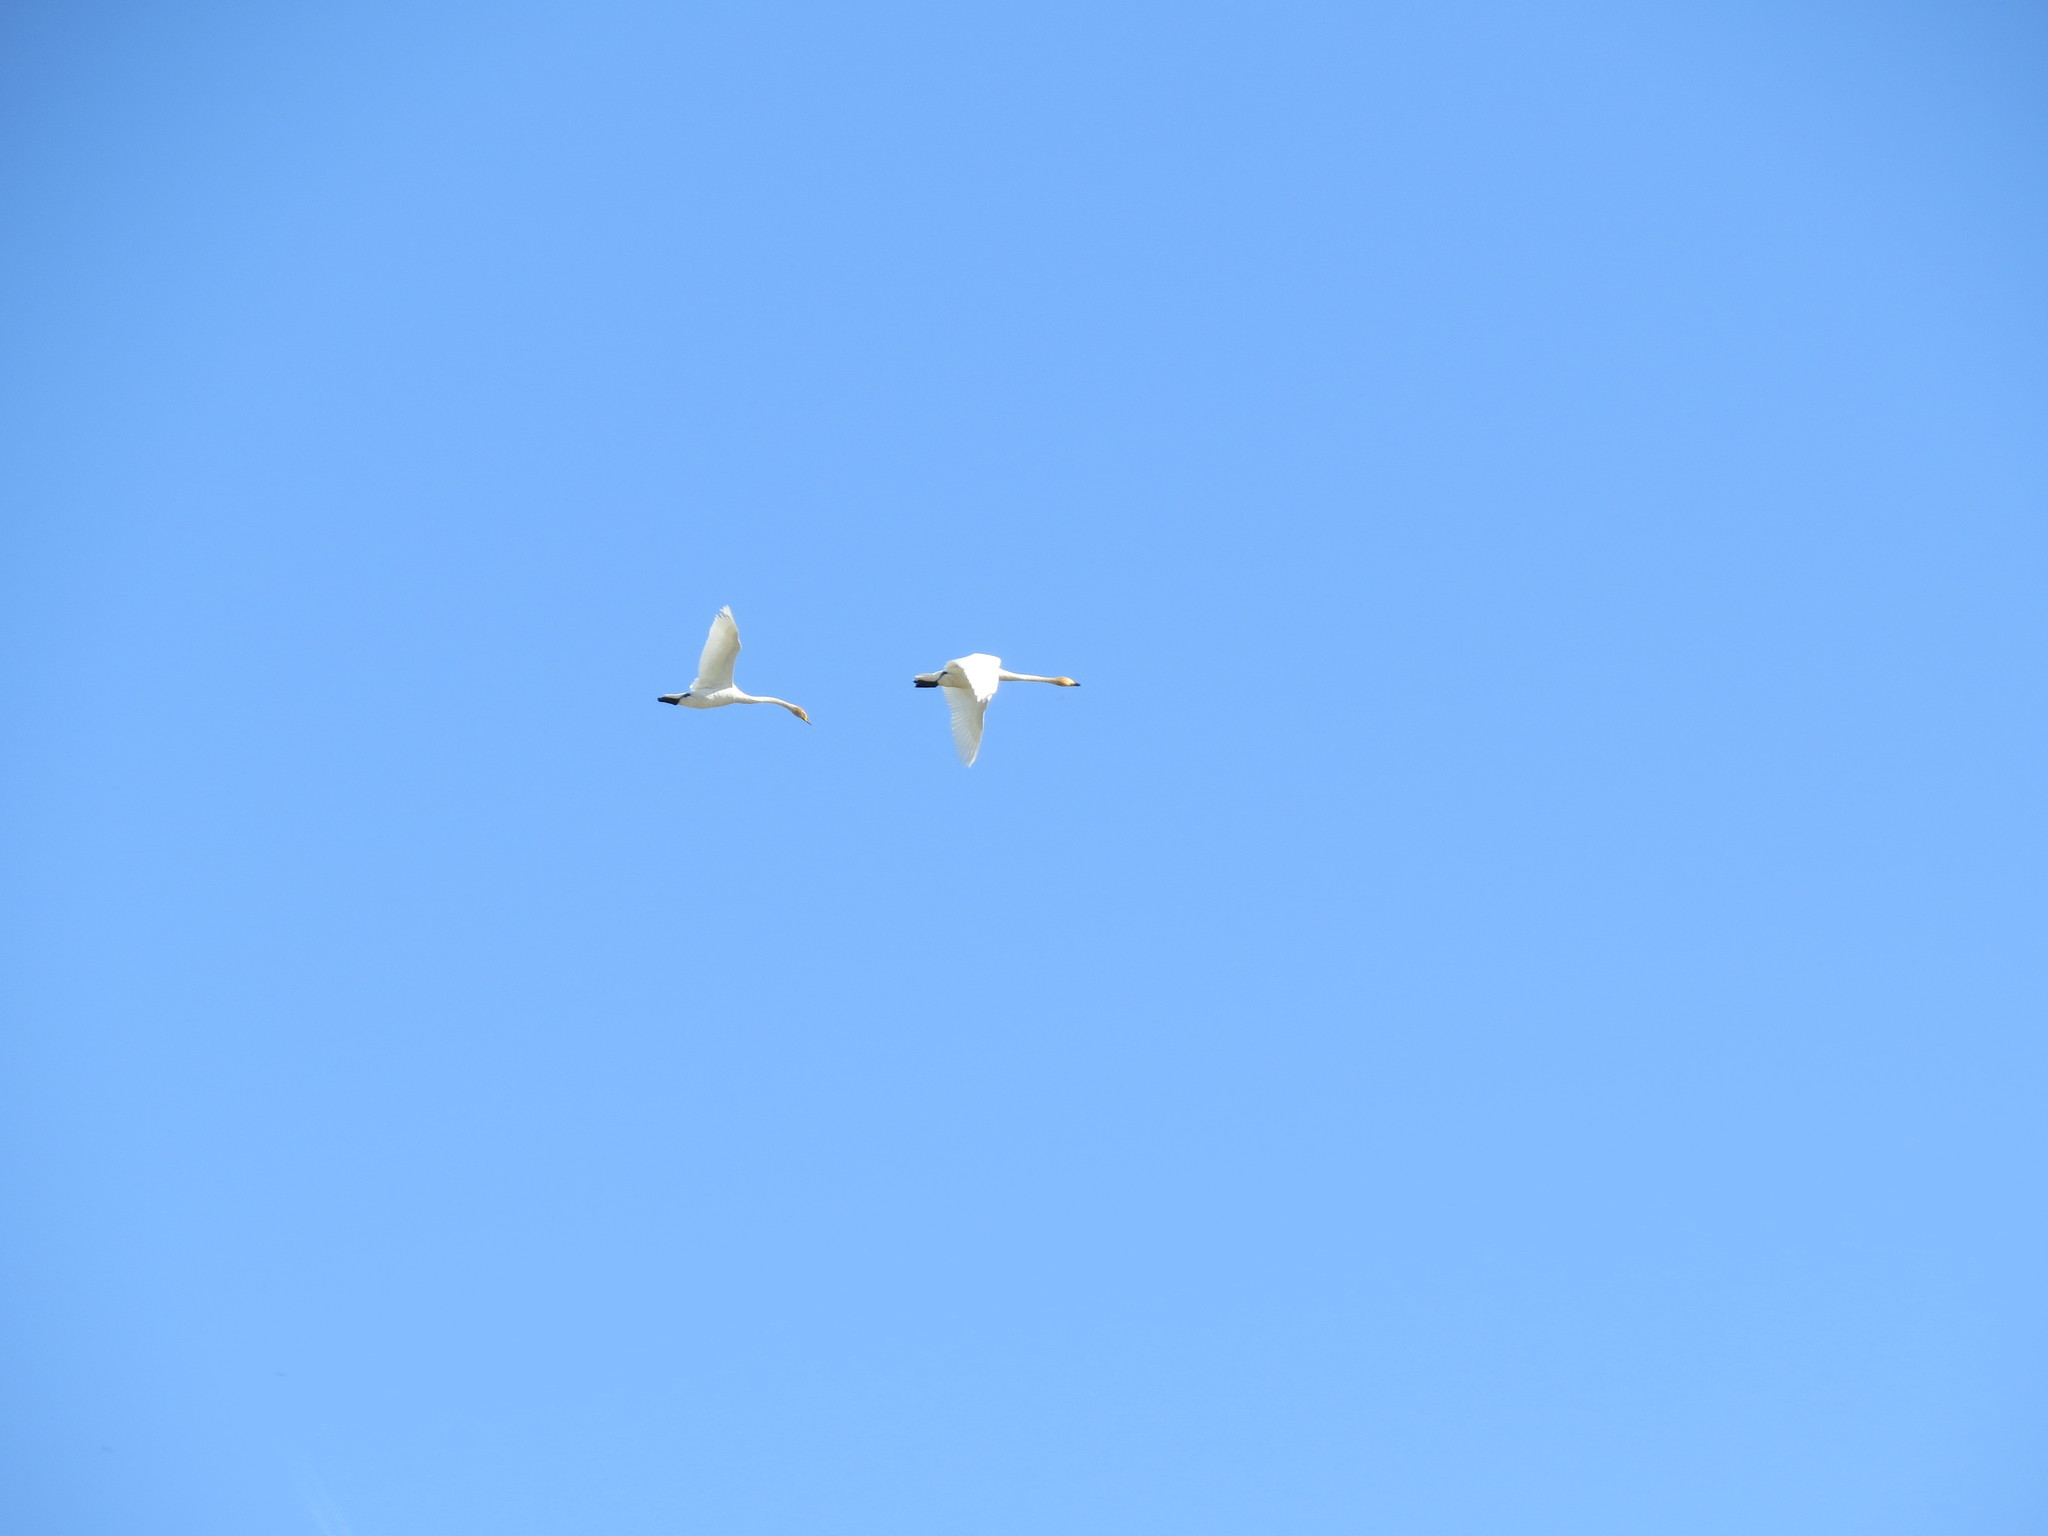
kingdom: Animalia
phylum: Chordata
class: Aves
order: Anseriformes
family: Anatidae
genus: Cygnus
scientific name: Cygnus cygnus
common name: Whooper swan
